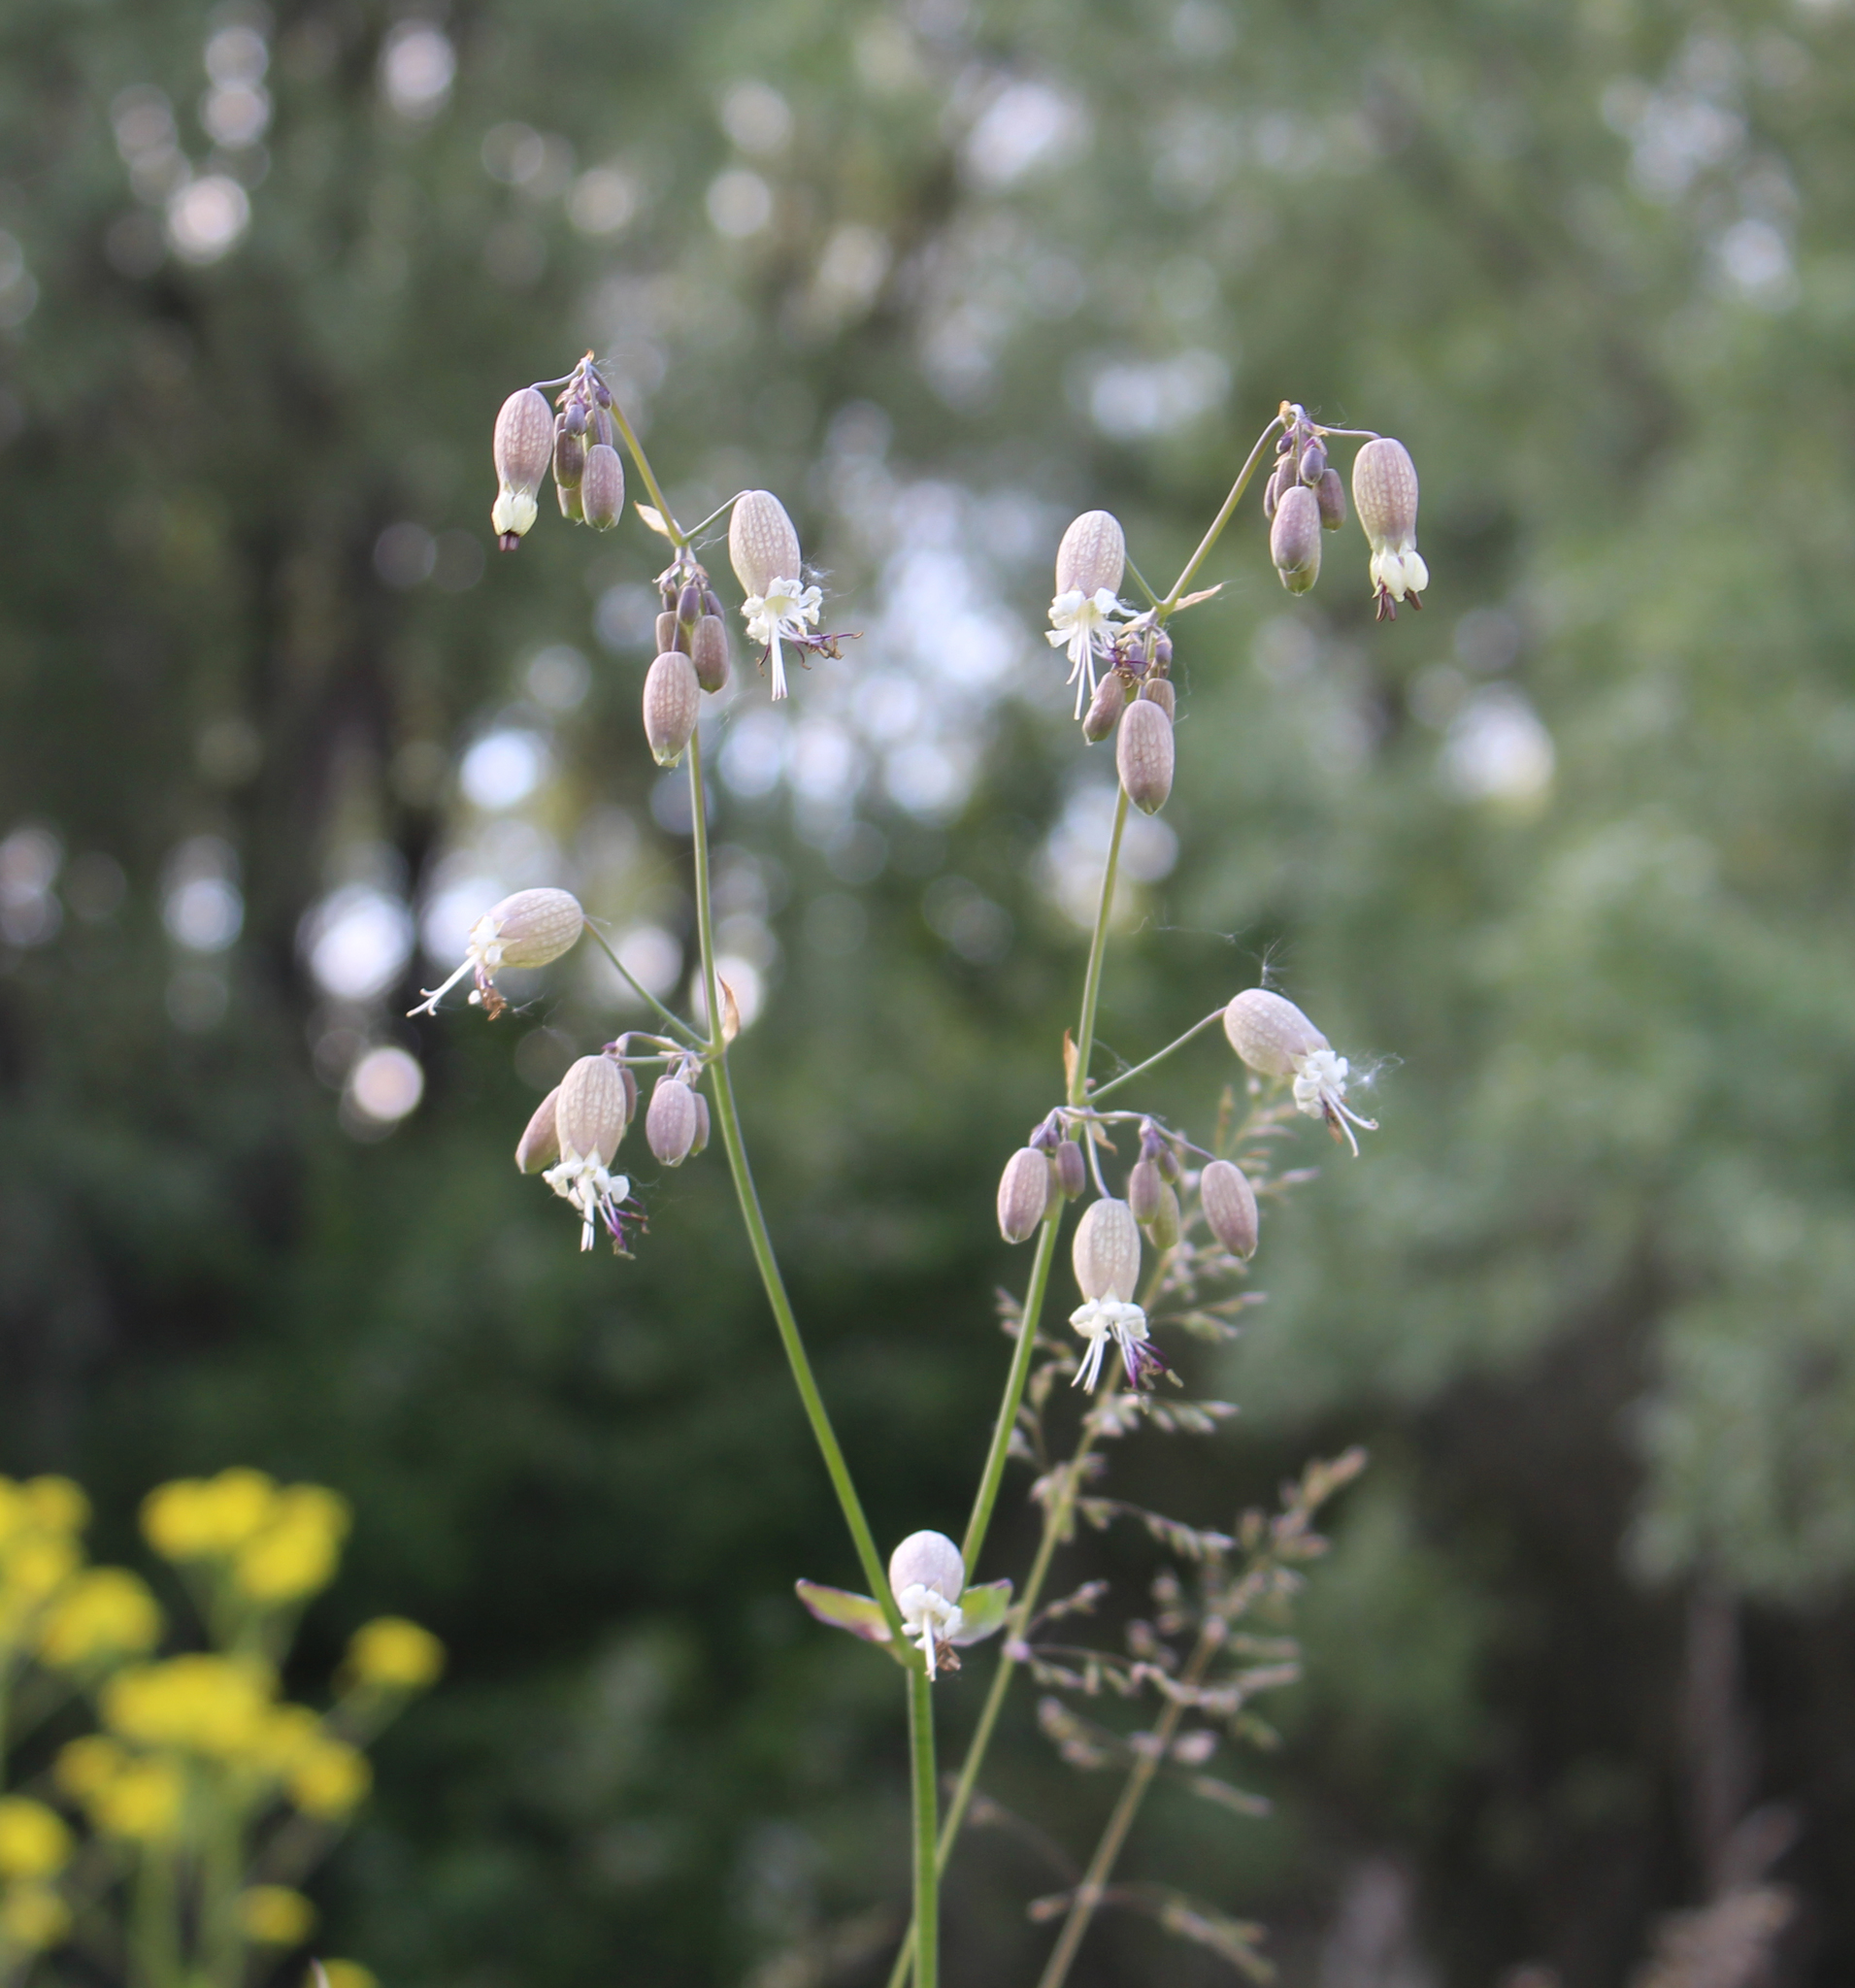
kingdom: Plantae
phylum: Tracheophyta
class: Magnoliopsida
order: Caryophyllales
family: Caryophyllaceae
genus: Silene
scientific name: Silene vulgaris
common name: Bladder campion
